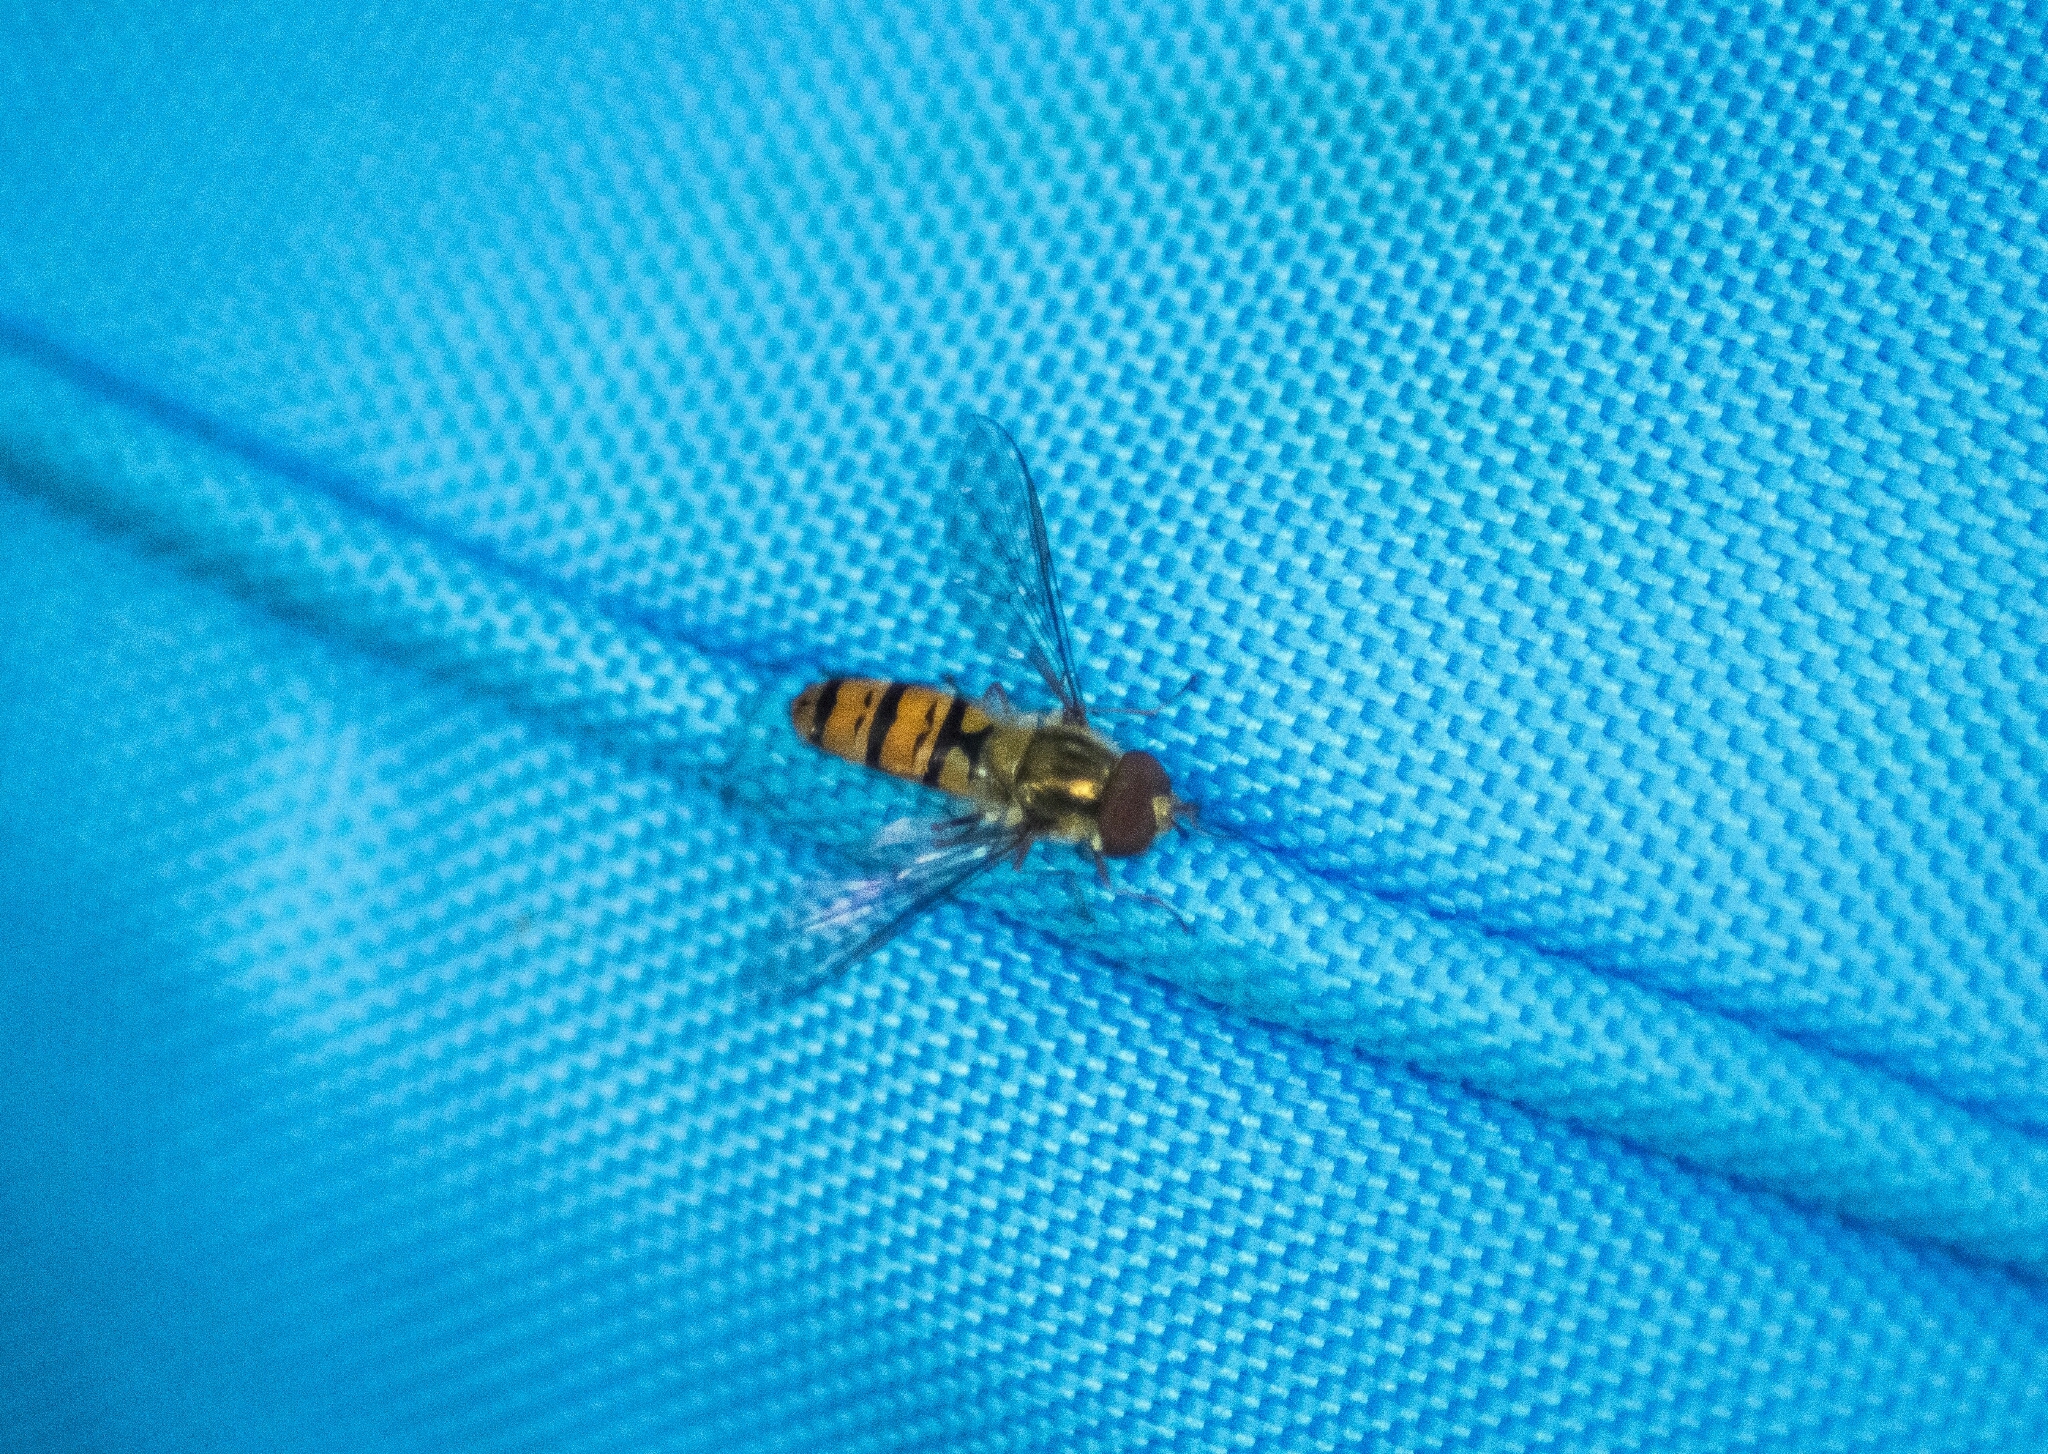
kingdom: Animalia
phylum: Arthropoda
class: Insecta
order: Diptera
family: Syrphidae
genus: Episyrphus
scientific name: Episyrphus balteatus
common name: Marmalade hoverfly
